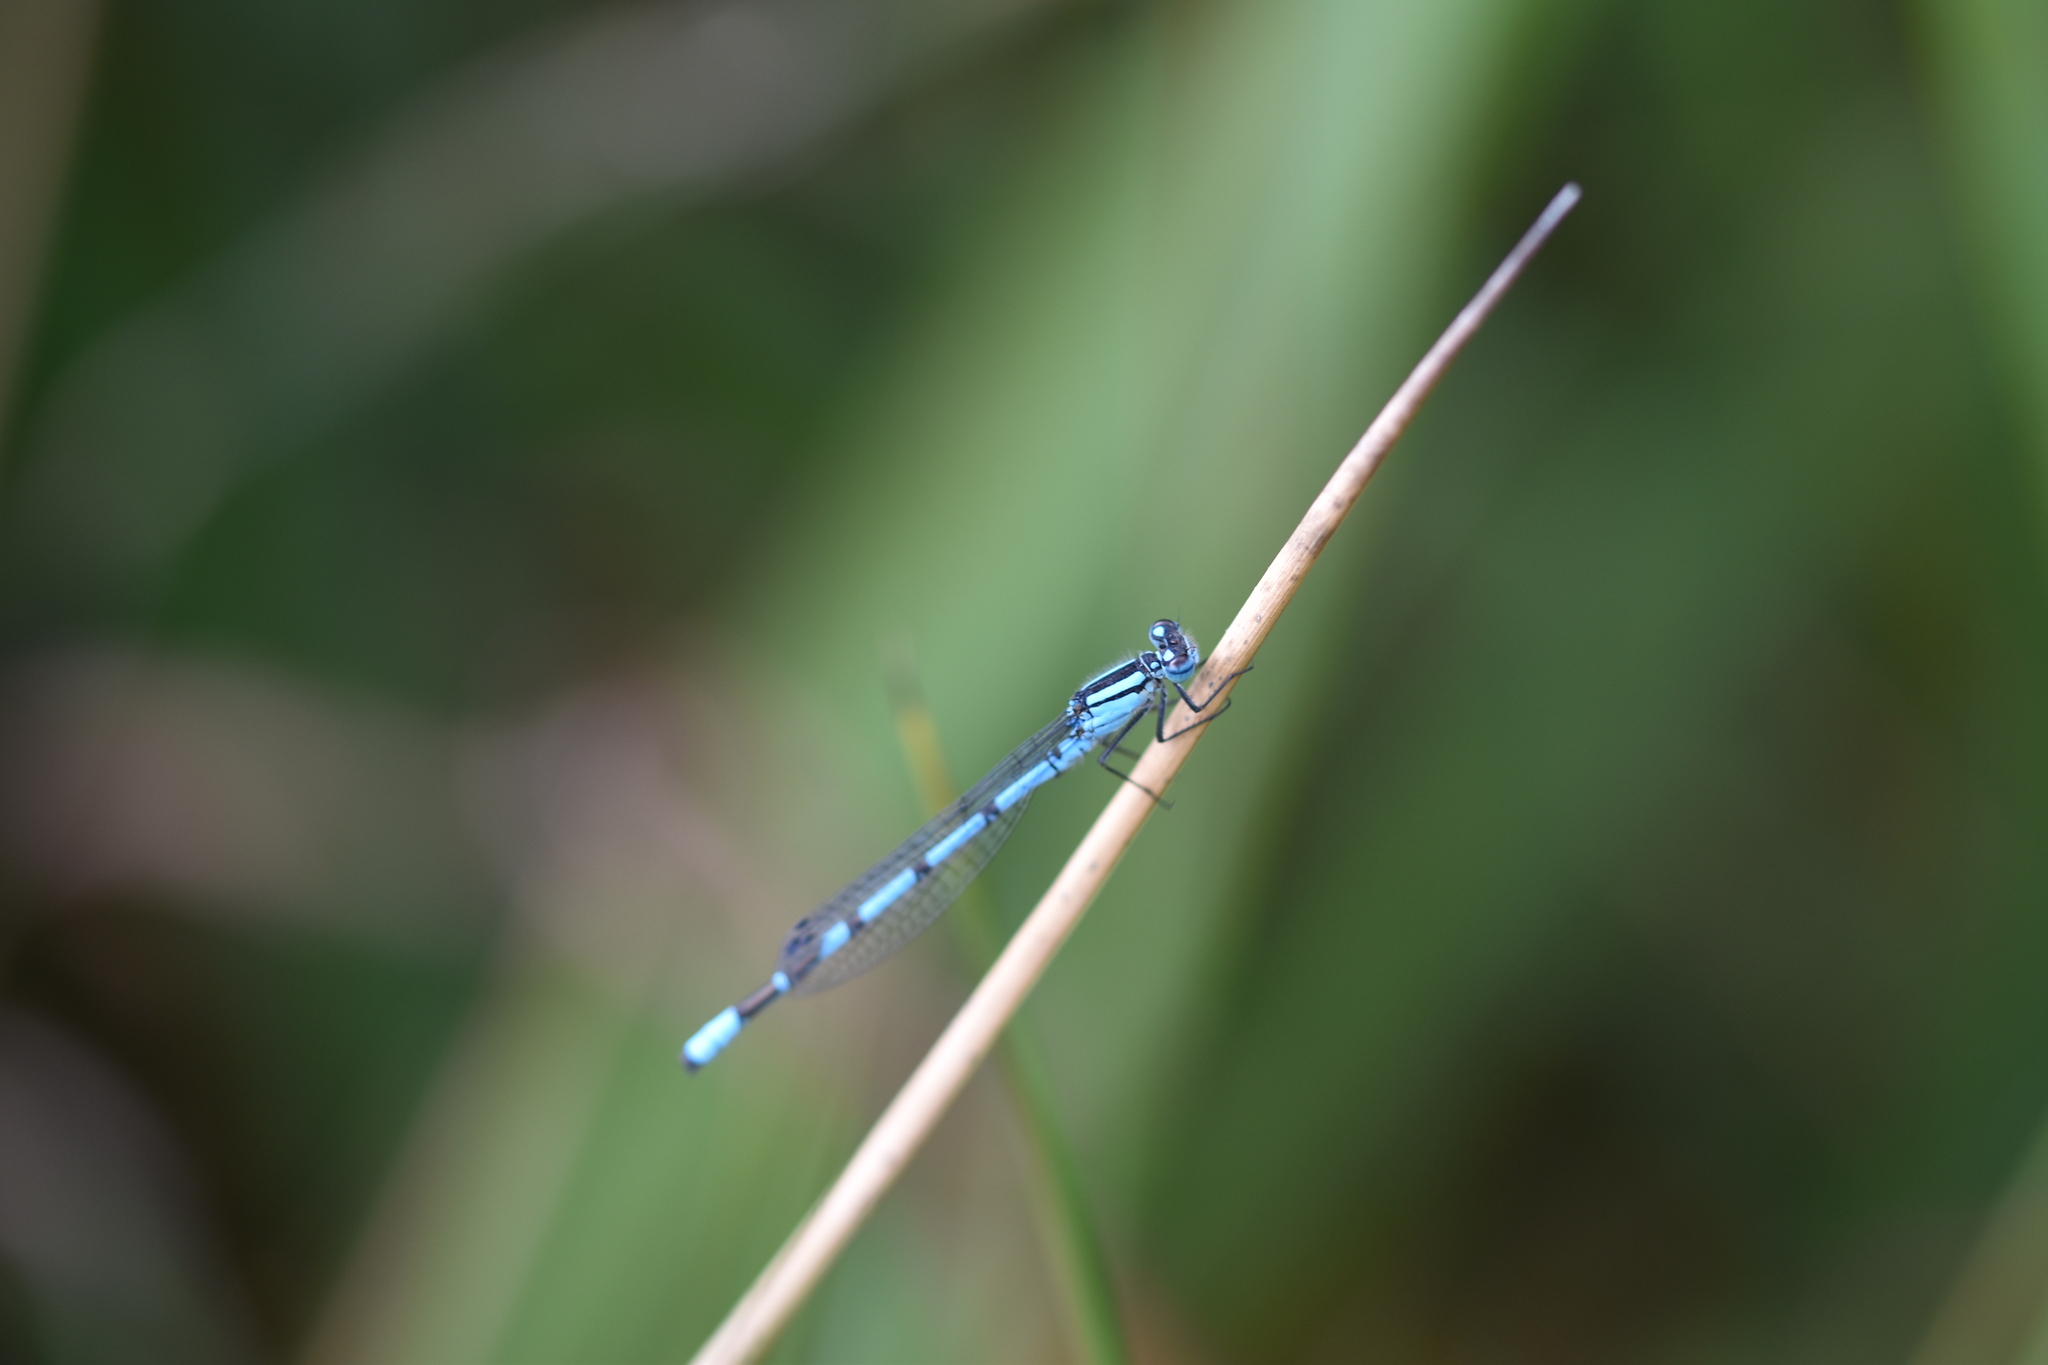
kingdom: Animalia
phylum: Arthropoda
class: Insecta
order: Odonata
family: Coenagrionidae
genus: Enallagma
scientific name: Enallagma cyathigerum
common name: Common blue damselfly
